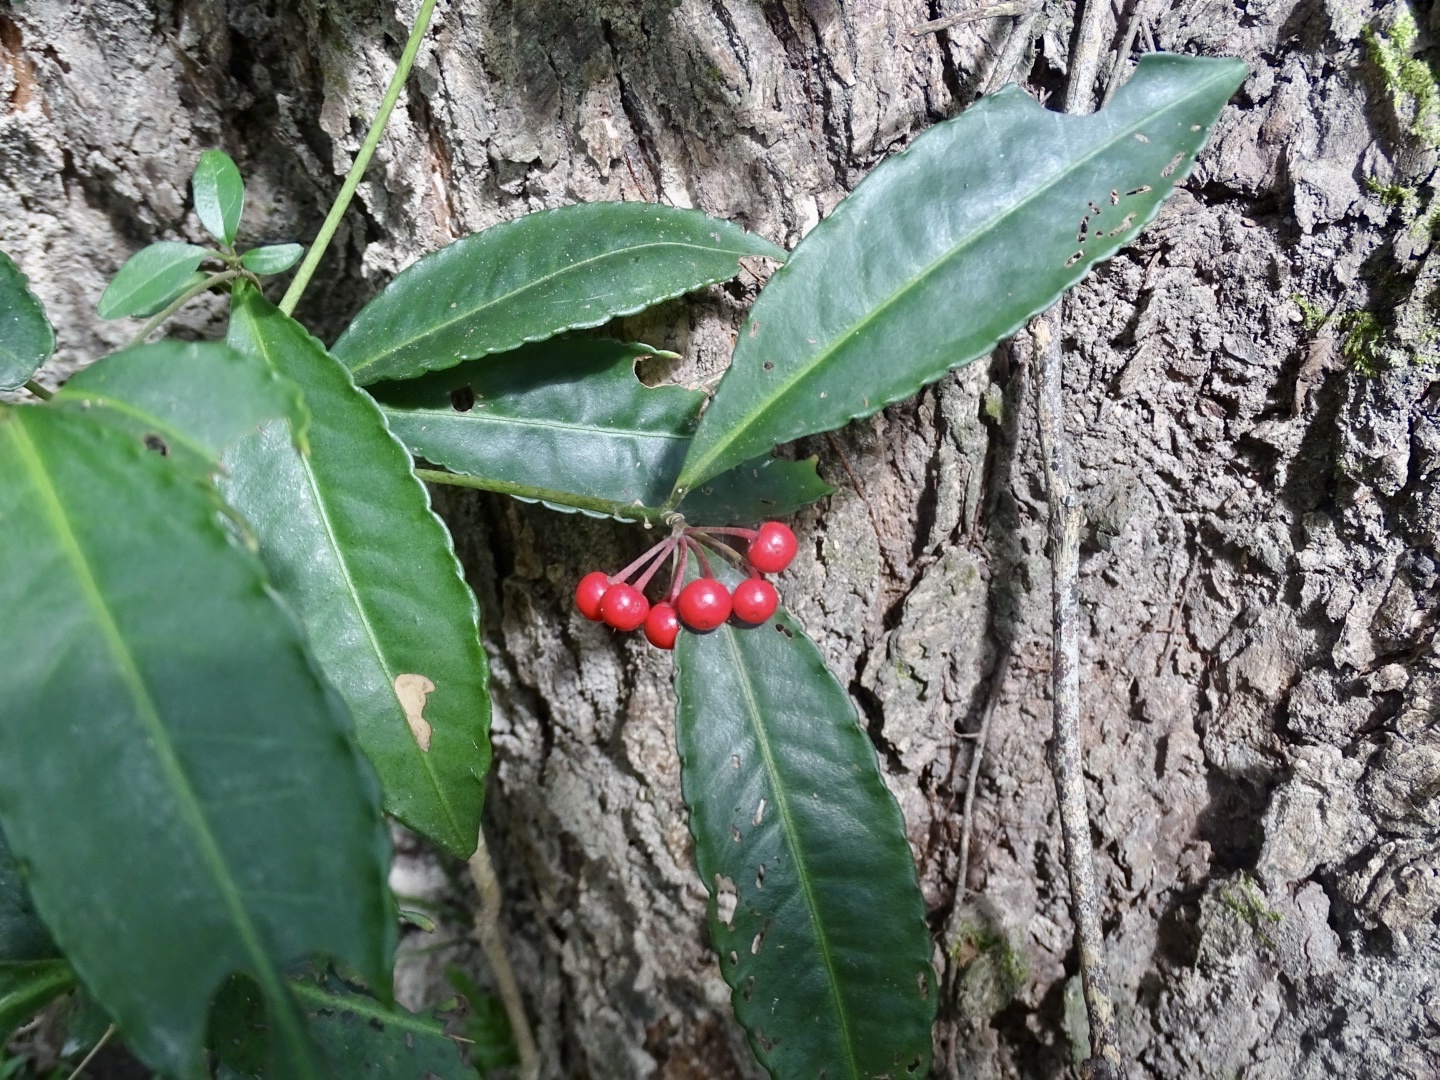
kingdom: Plantae
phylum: Tracheophyta
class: Magnoliopsida
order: Ericales
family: Primulaceae
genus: Ardisia
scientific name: Ardisia crenata
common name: Hen's eyes
